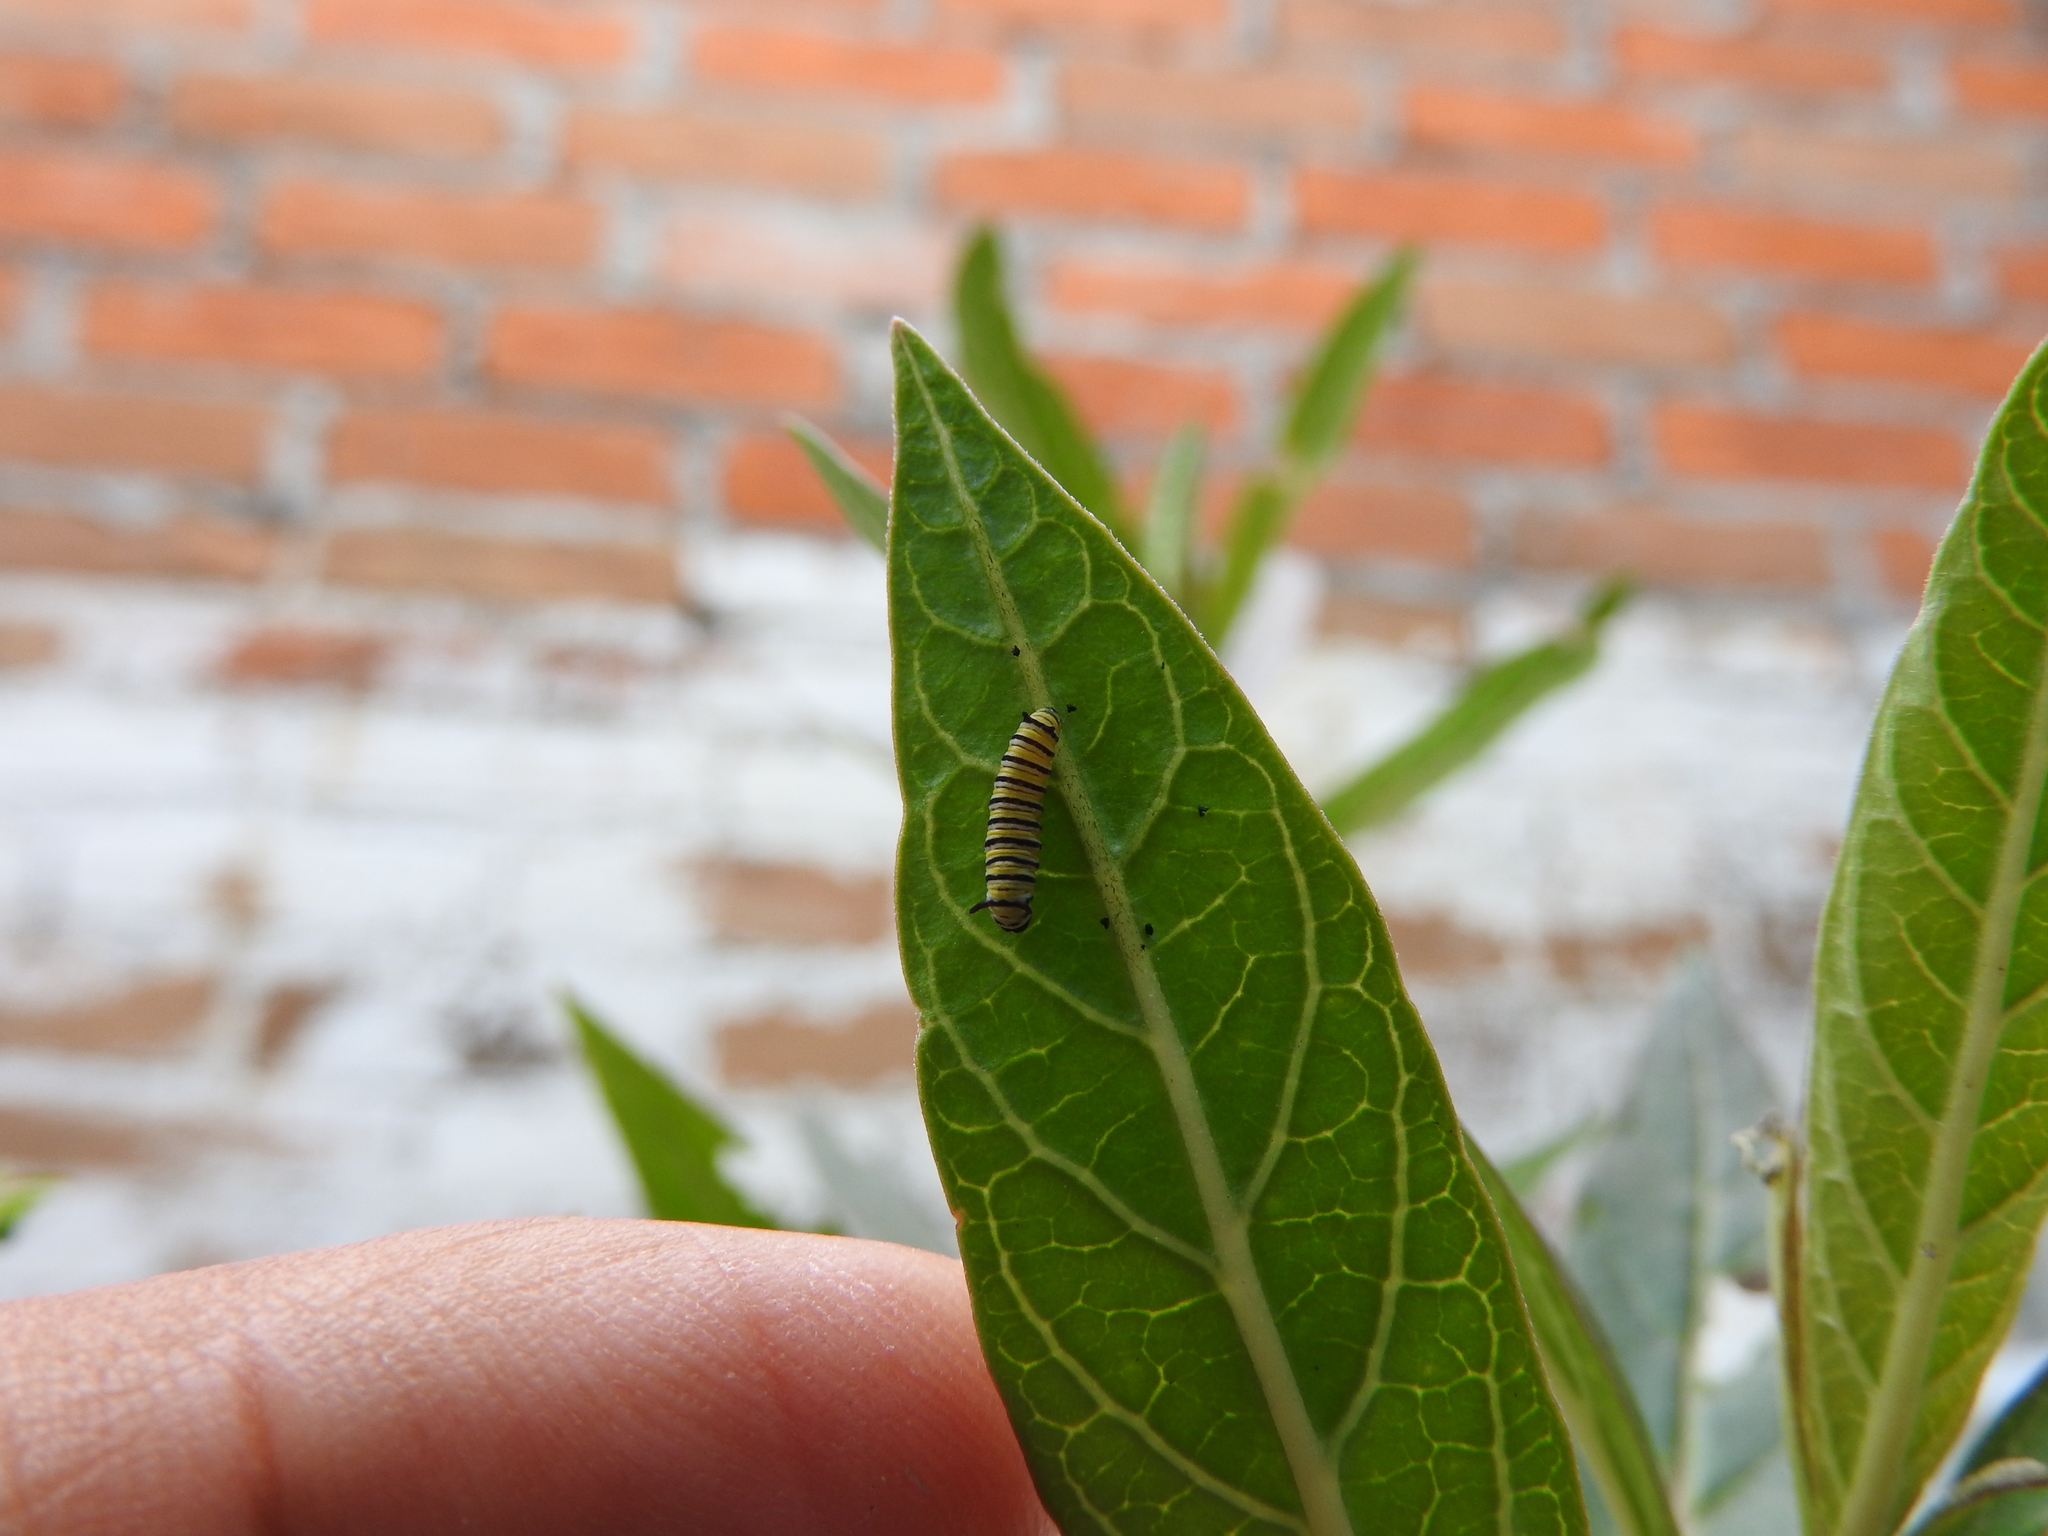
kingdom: Animalia
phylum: Arthropoda
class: Insecta
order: Lepidoptera
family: Nymphalidae
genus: Danaus
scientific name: Danaus plexippus
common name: Monarch
